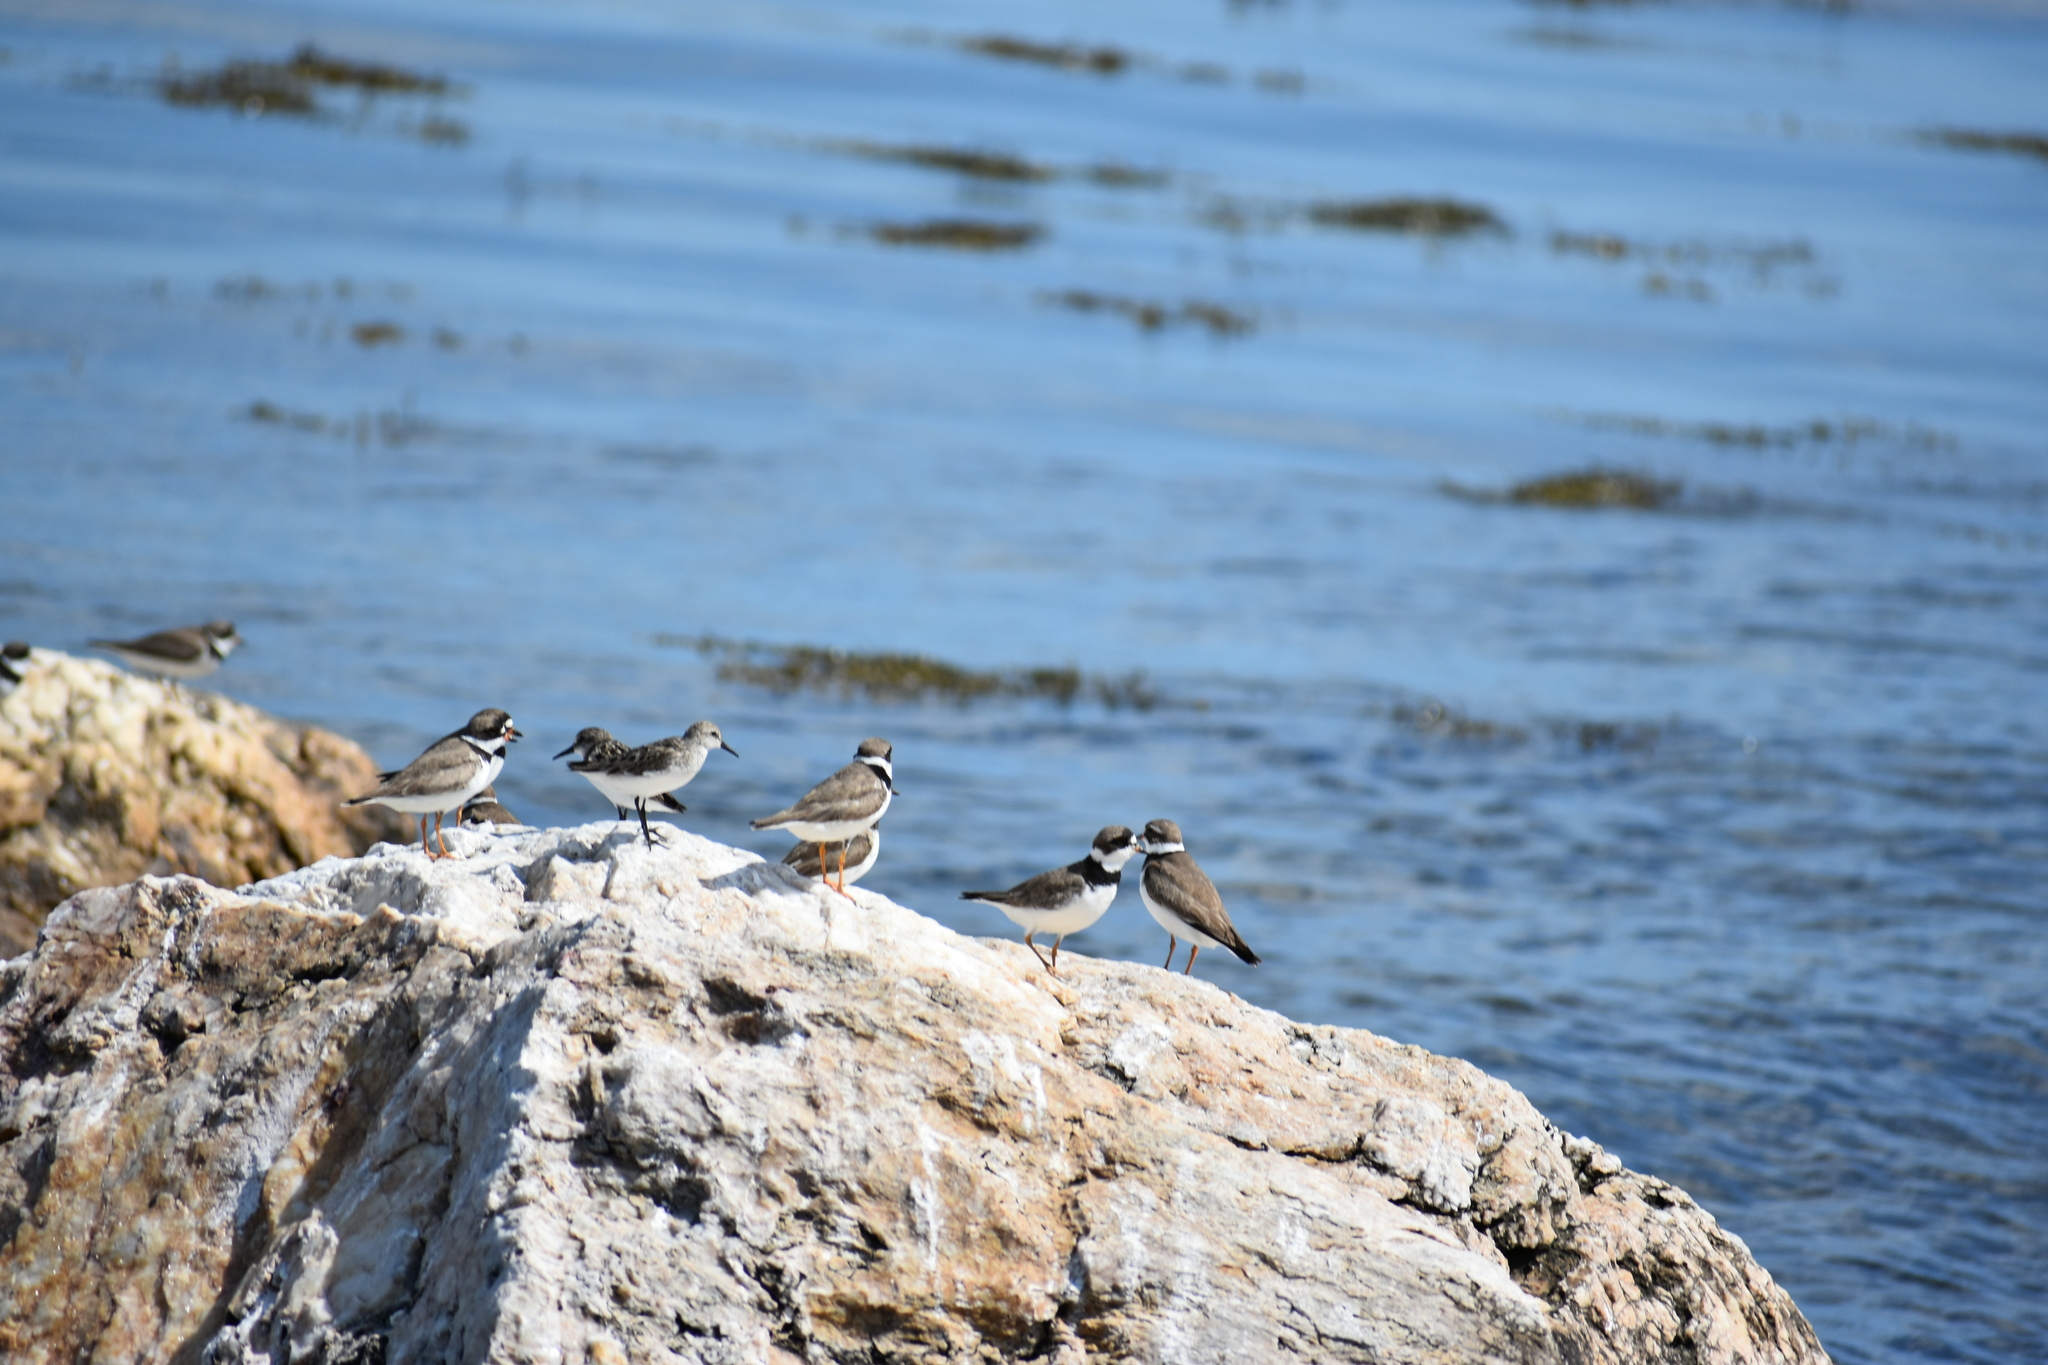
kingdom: Animalia
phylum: Chordata
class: Aves
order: Charadriiformes
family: Scolopacidae
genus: Calidris
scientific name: Calidris pusilla
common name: Semipalmated sandpiper
